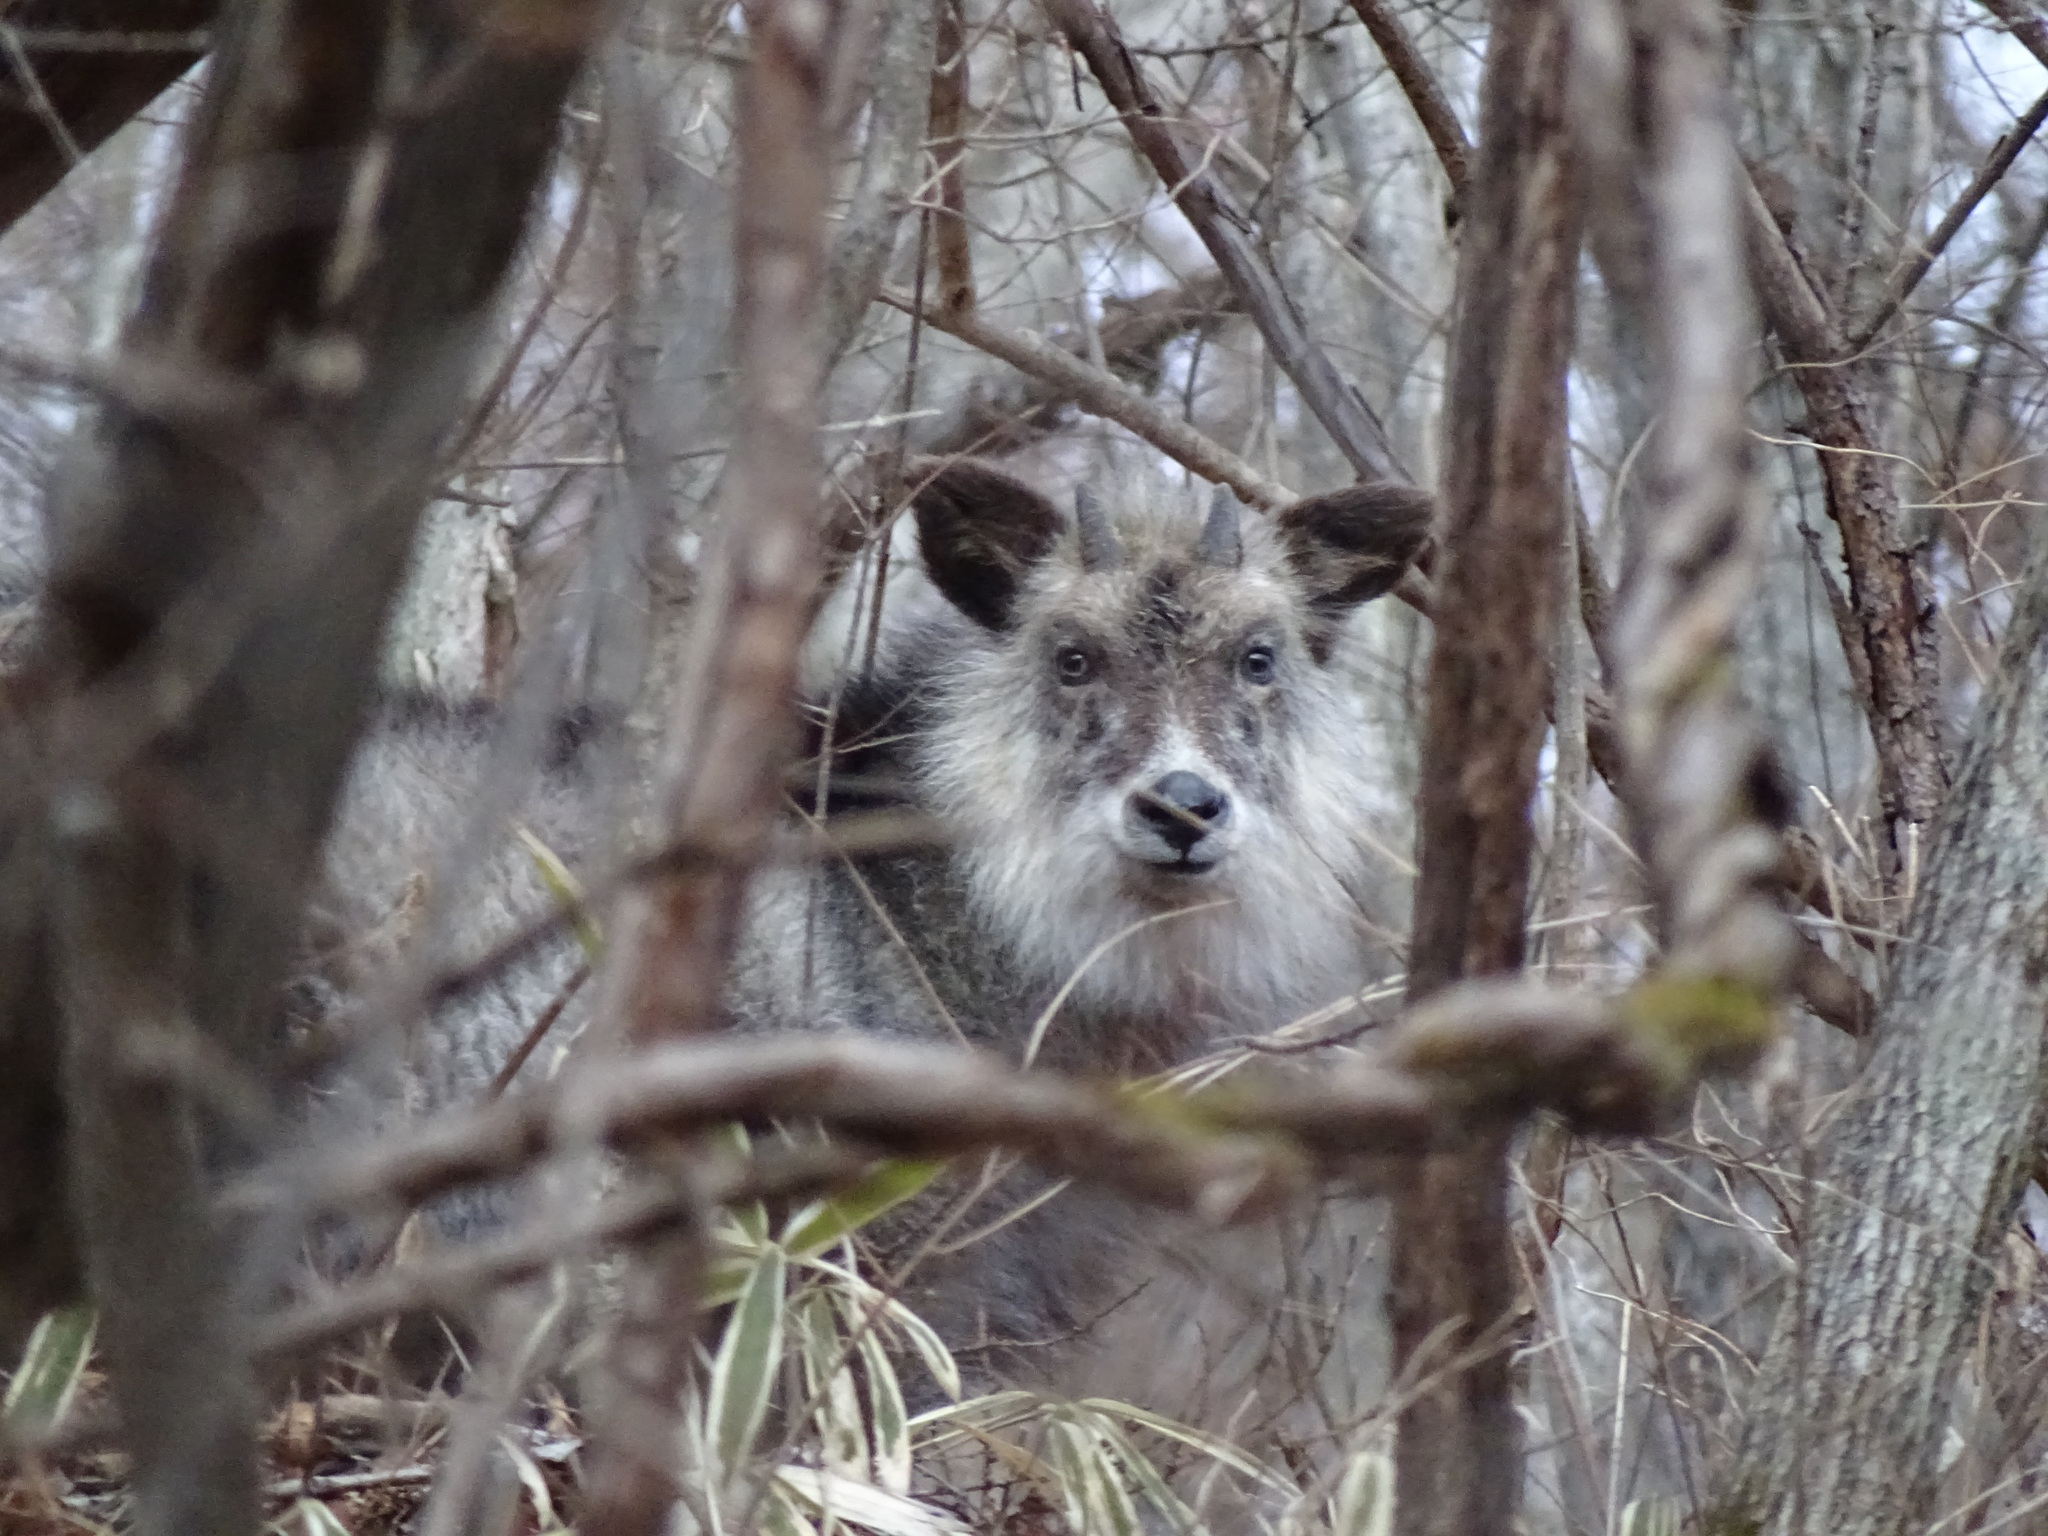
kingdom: Animalia
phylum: Chordata
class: Mammalia
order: Artiodactyla
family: Bovidae
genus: Capricornis
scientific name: Capricornis crispus
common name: Japanese serow
